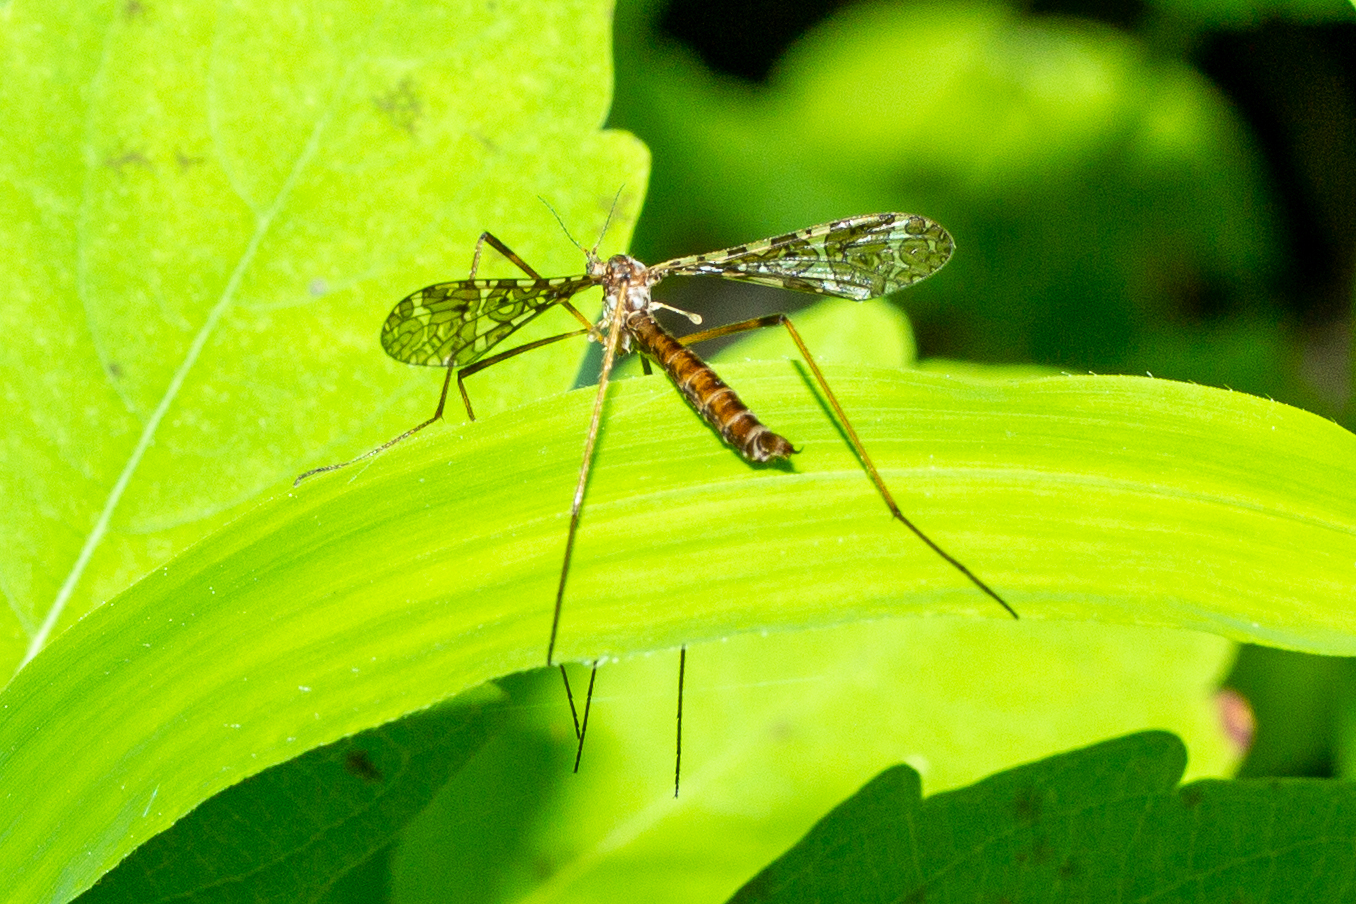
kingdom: Animalia
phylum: Arthropoda
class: Insecta
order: Diptera
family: Limoniidae
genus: Epiphragma
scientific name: Epiphragma fasciapenne
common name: Band-winged crane fly
